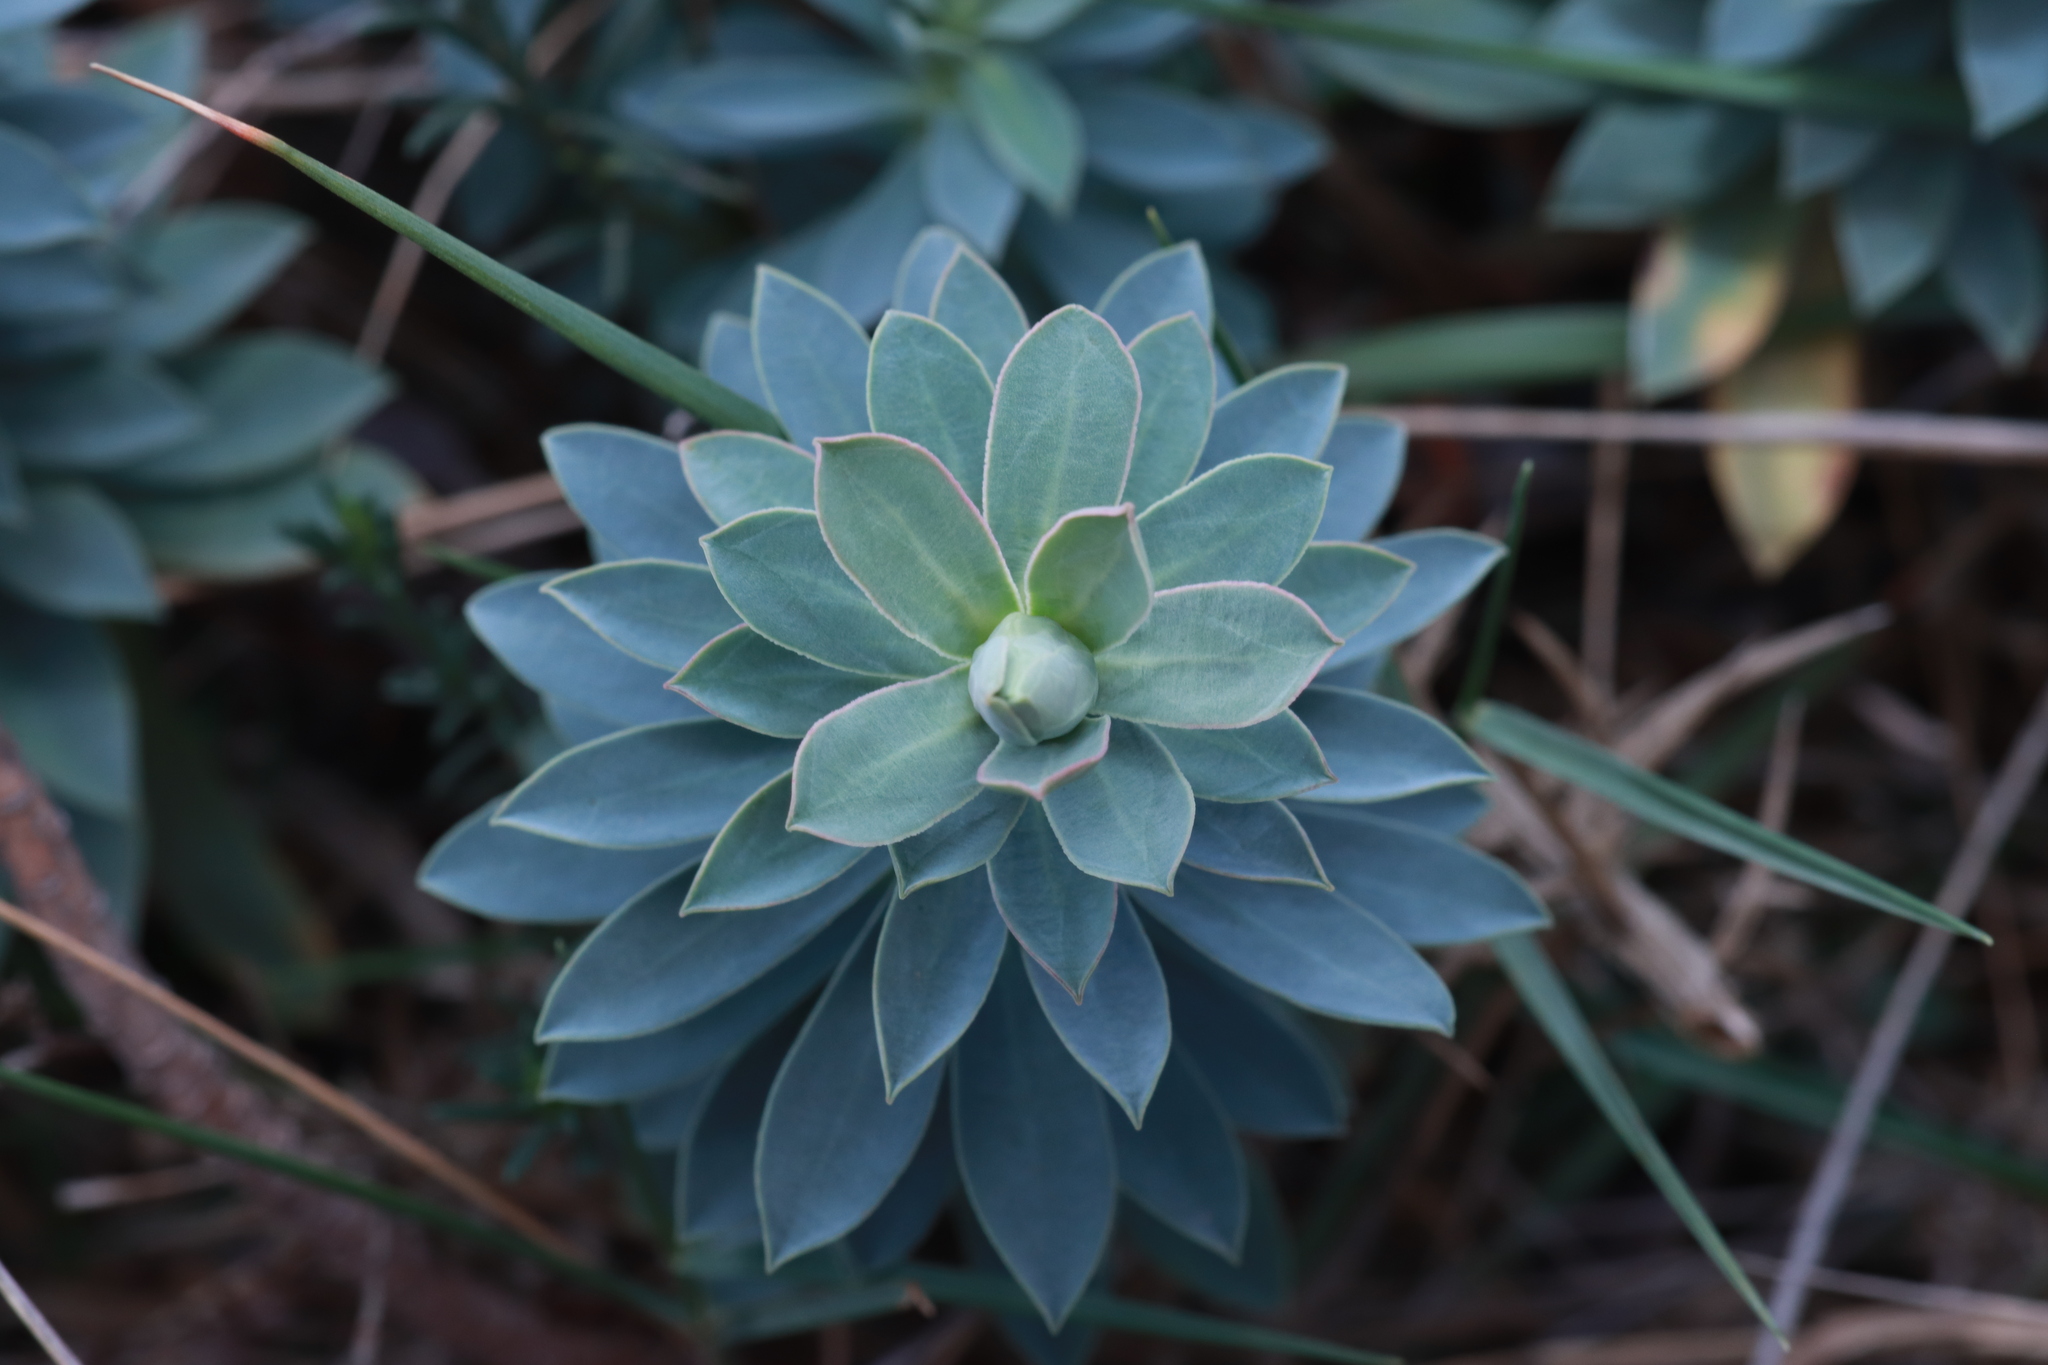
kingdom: Plantae
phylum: Tracheophyta
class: Magnoliopsida
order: Malpighiales
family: Euphorbiaceae
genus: Euphorbia
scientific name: Euphorbia nicaeensis
